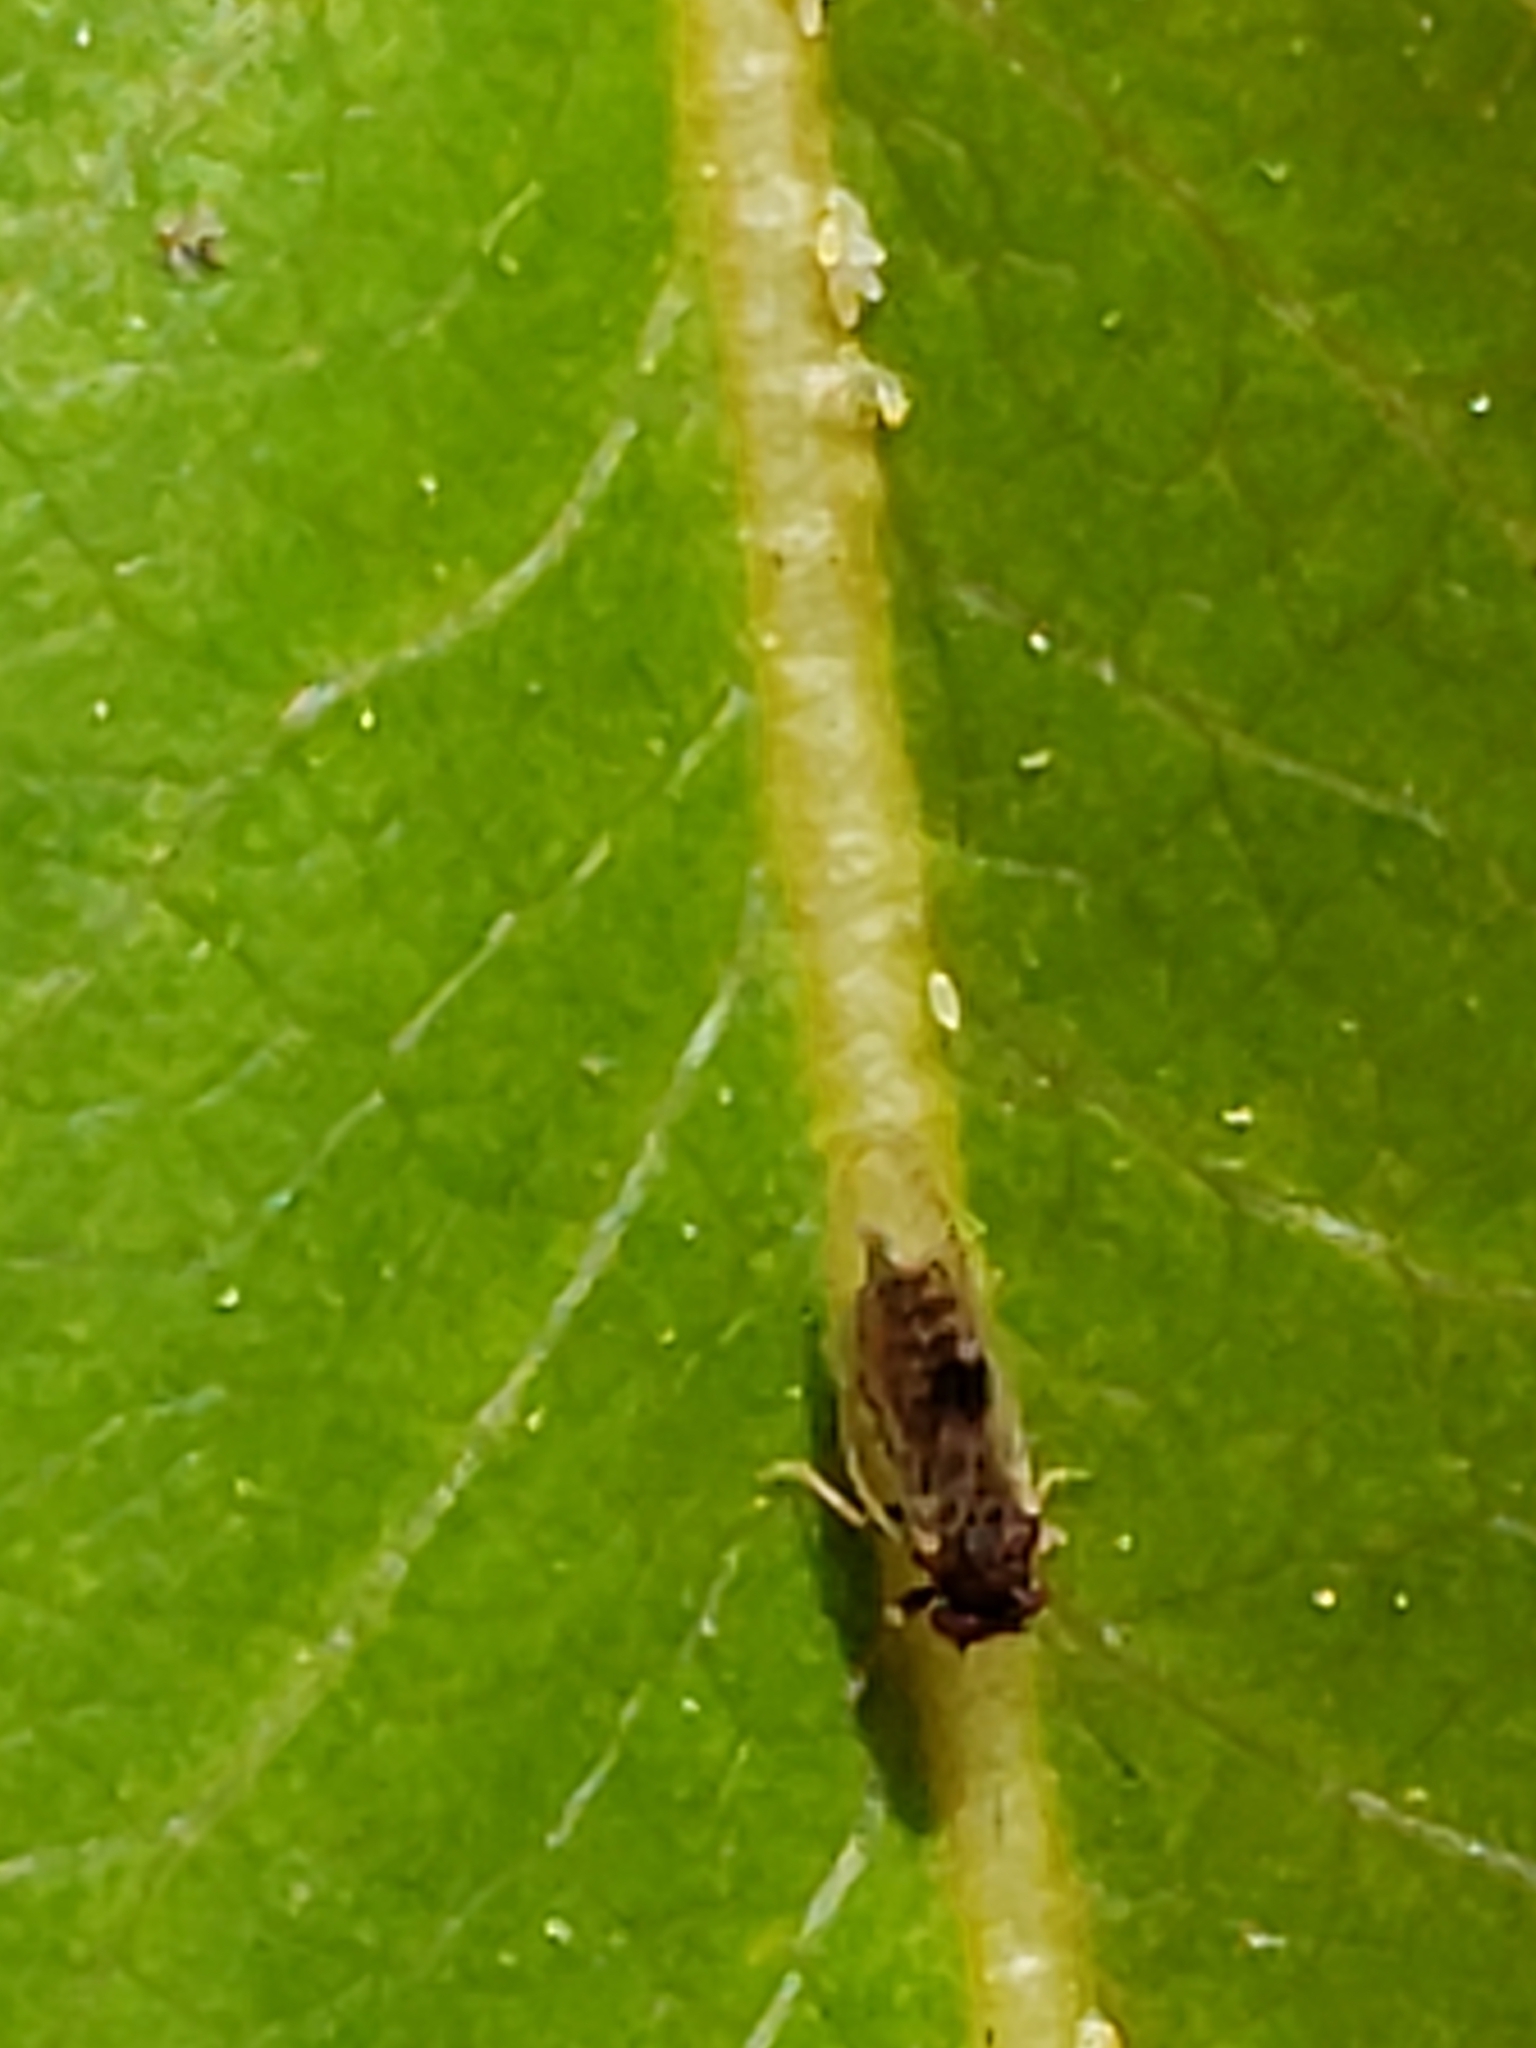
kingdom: Animalia
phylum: Arthropoda
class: Insecta
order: Hemiptera
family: Psyllidae
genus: Cacopsylla
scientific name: Cacopsylla pyricola
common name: Pear psylla
